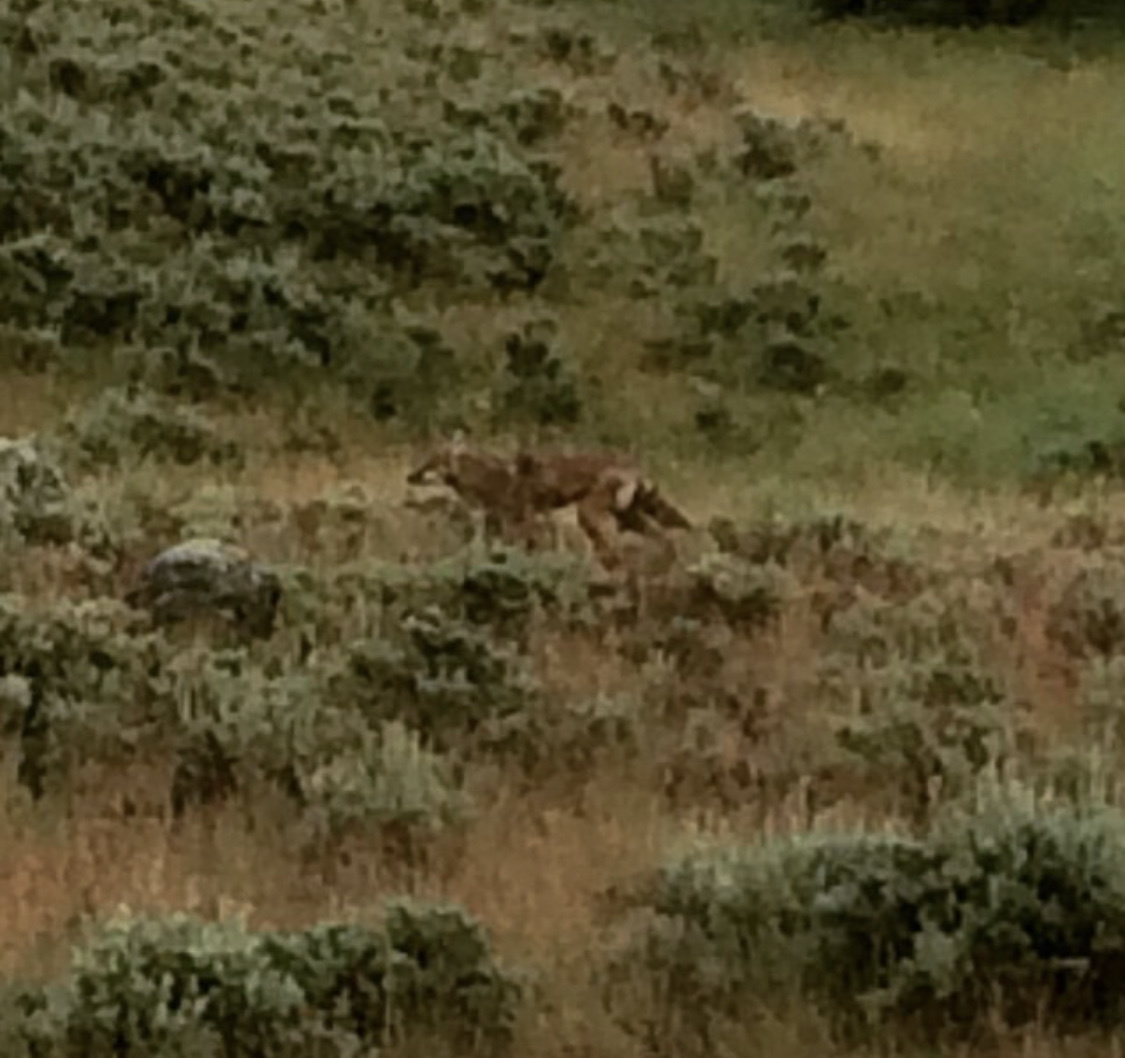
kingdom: Animalia
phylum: Chordata
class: Mammalia
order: Carnivora
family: Canidae
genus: Canis
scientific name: Canis latrans
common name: Coyote
